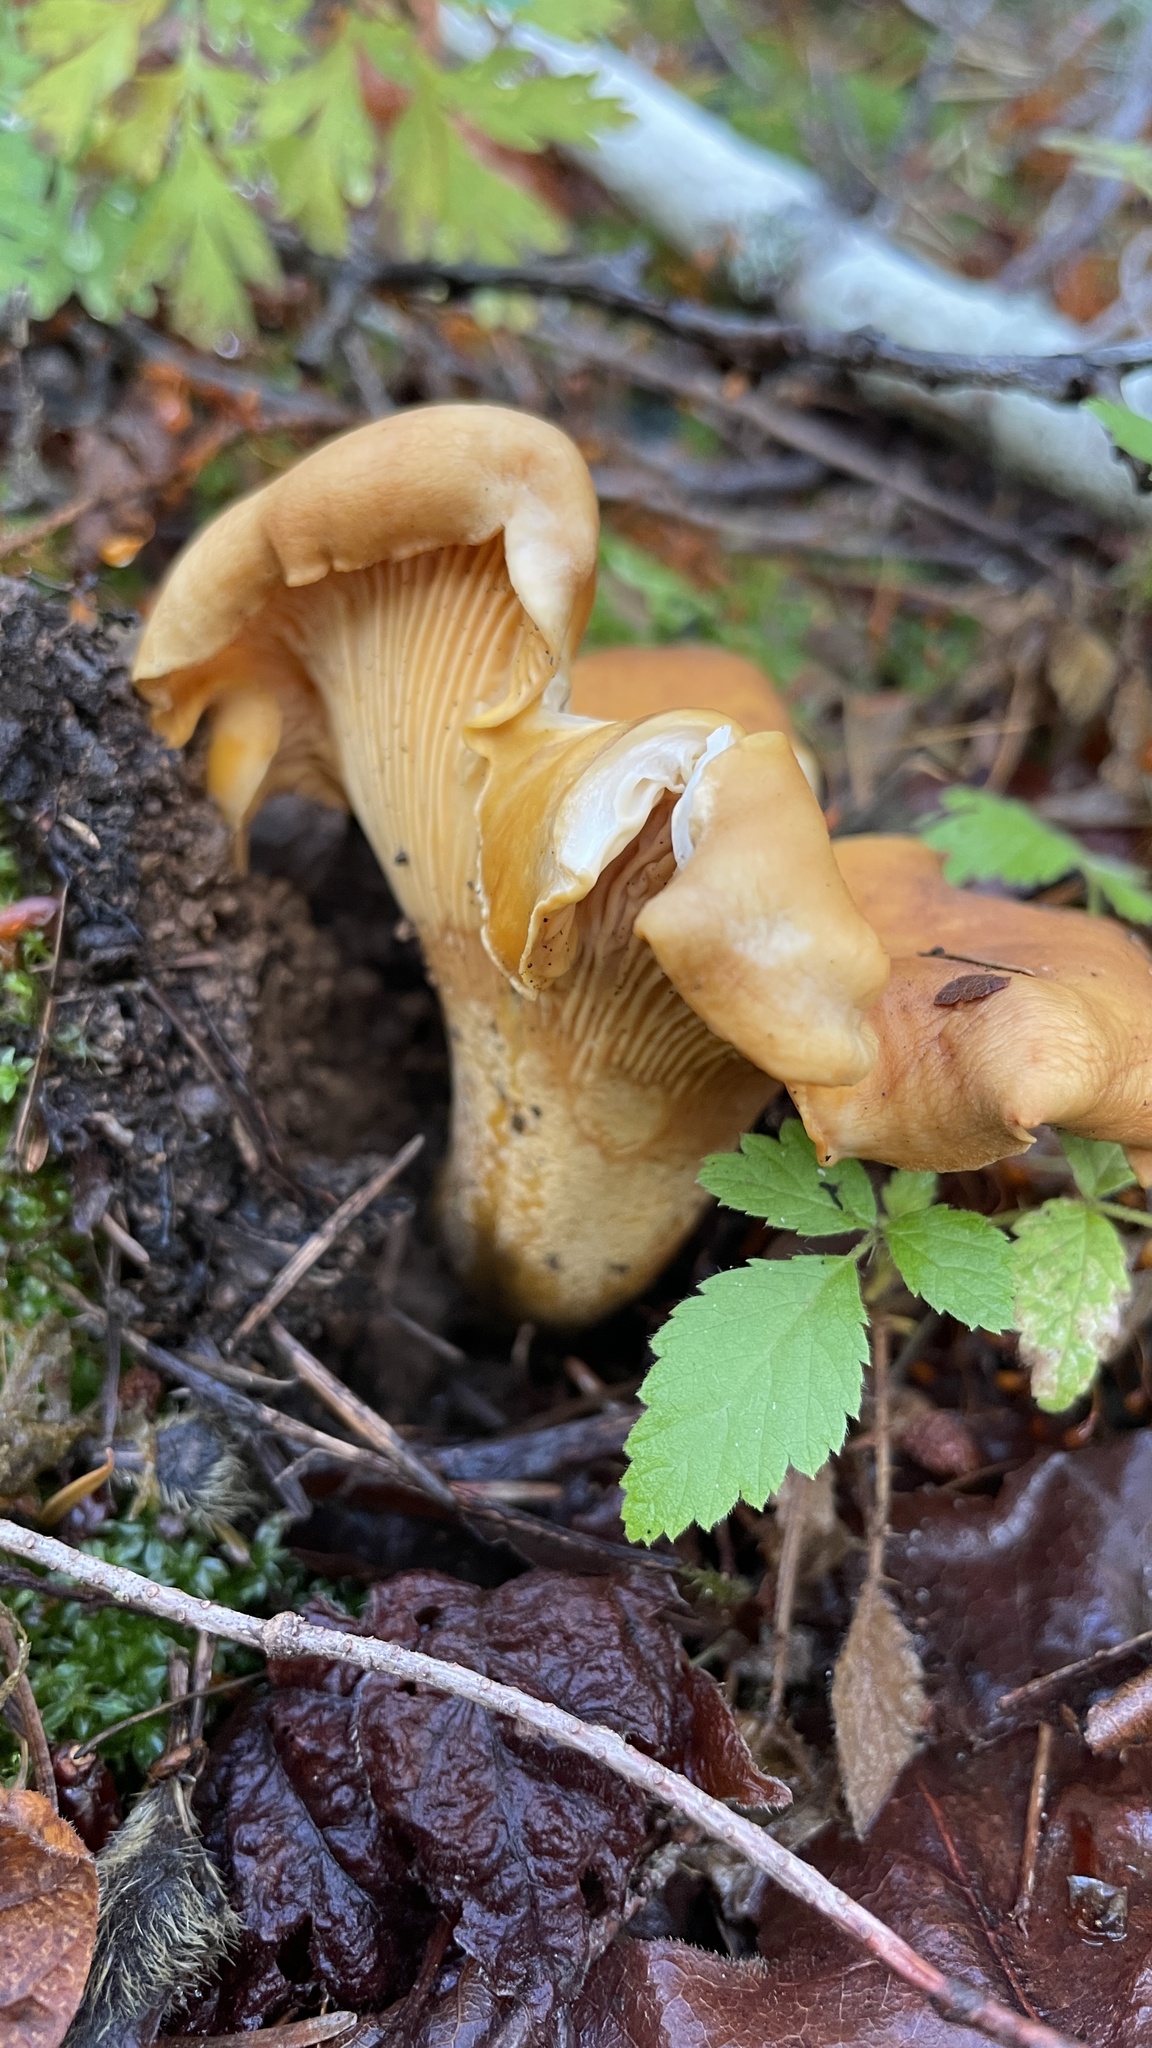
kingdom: Fungi
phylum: Basidiomycota
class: Agaricomycetes
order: Cantharellales
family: Hydnaceae
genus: Cantharellus
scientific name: Cantharellus formosus
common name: Pacific golden chanterelle
